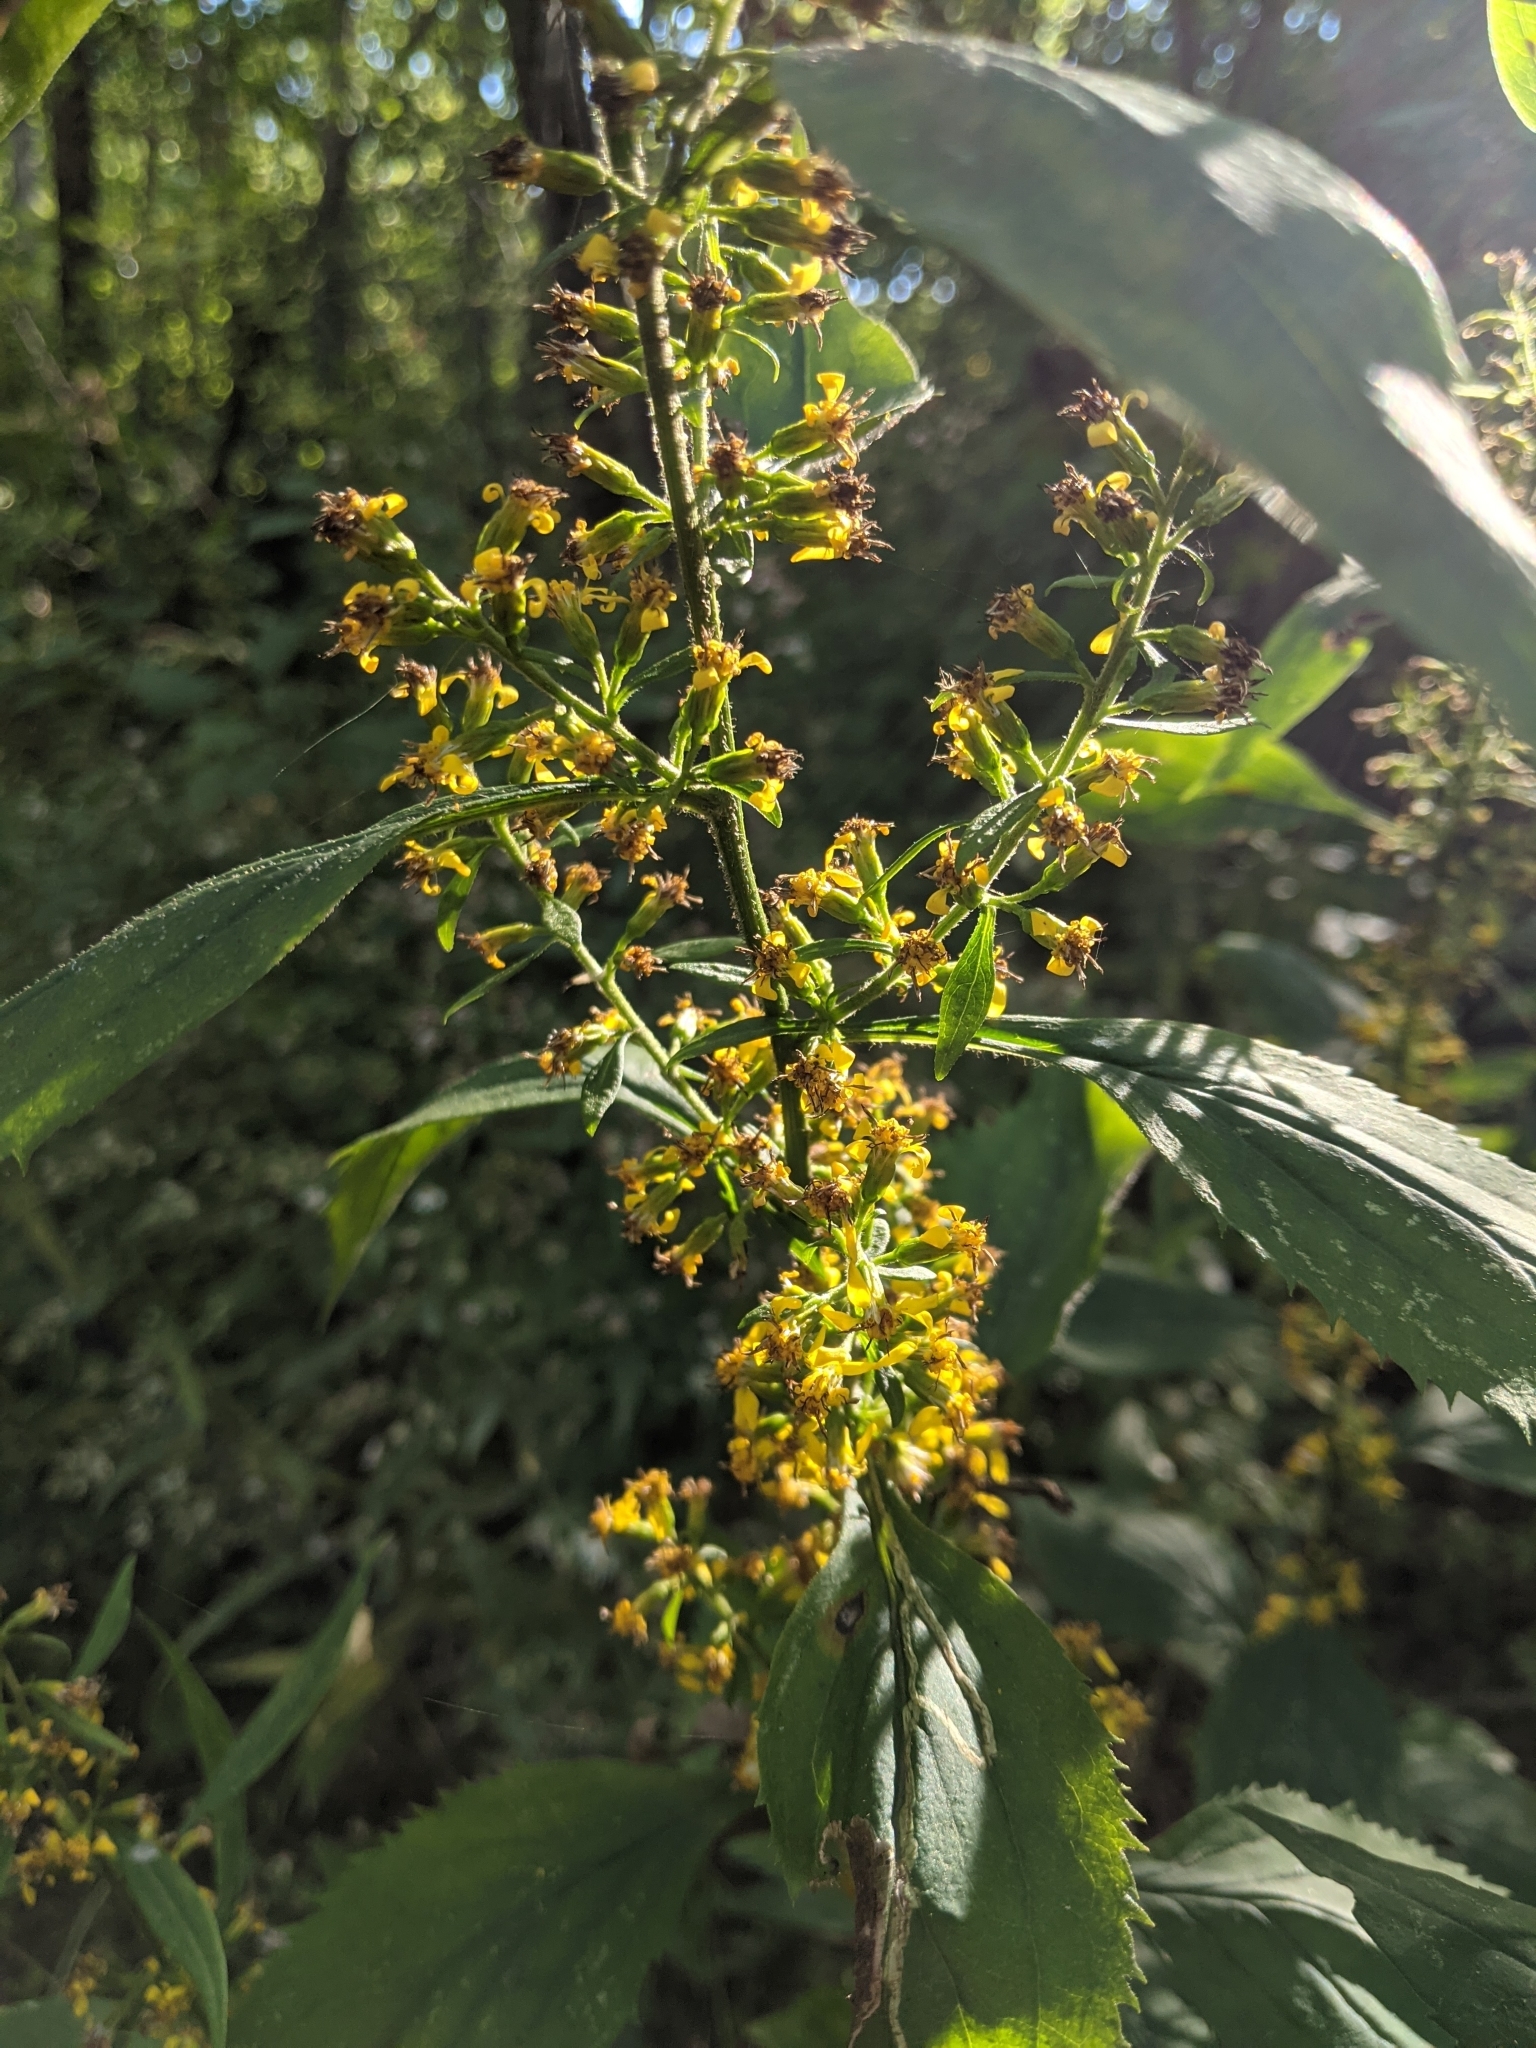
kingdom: Plantae
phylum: Tracheophyta
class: Magnoliopsida
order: Asterales
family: Asteraceae
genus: Solidago
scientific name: Solidago flexicaulis
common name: Zig-zag goldenrod
